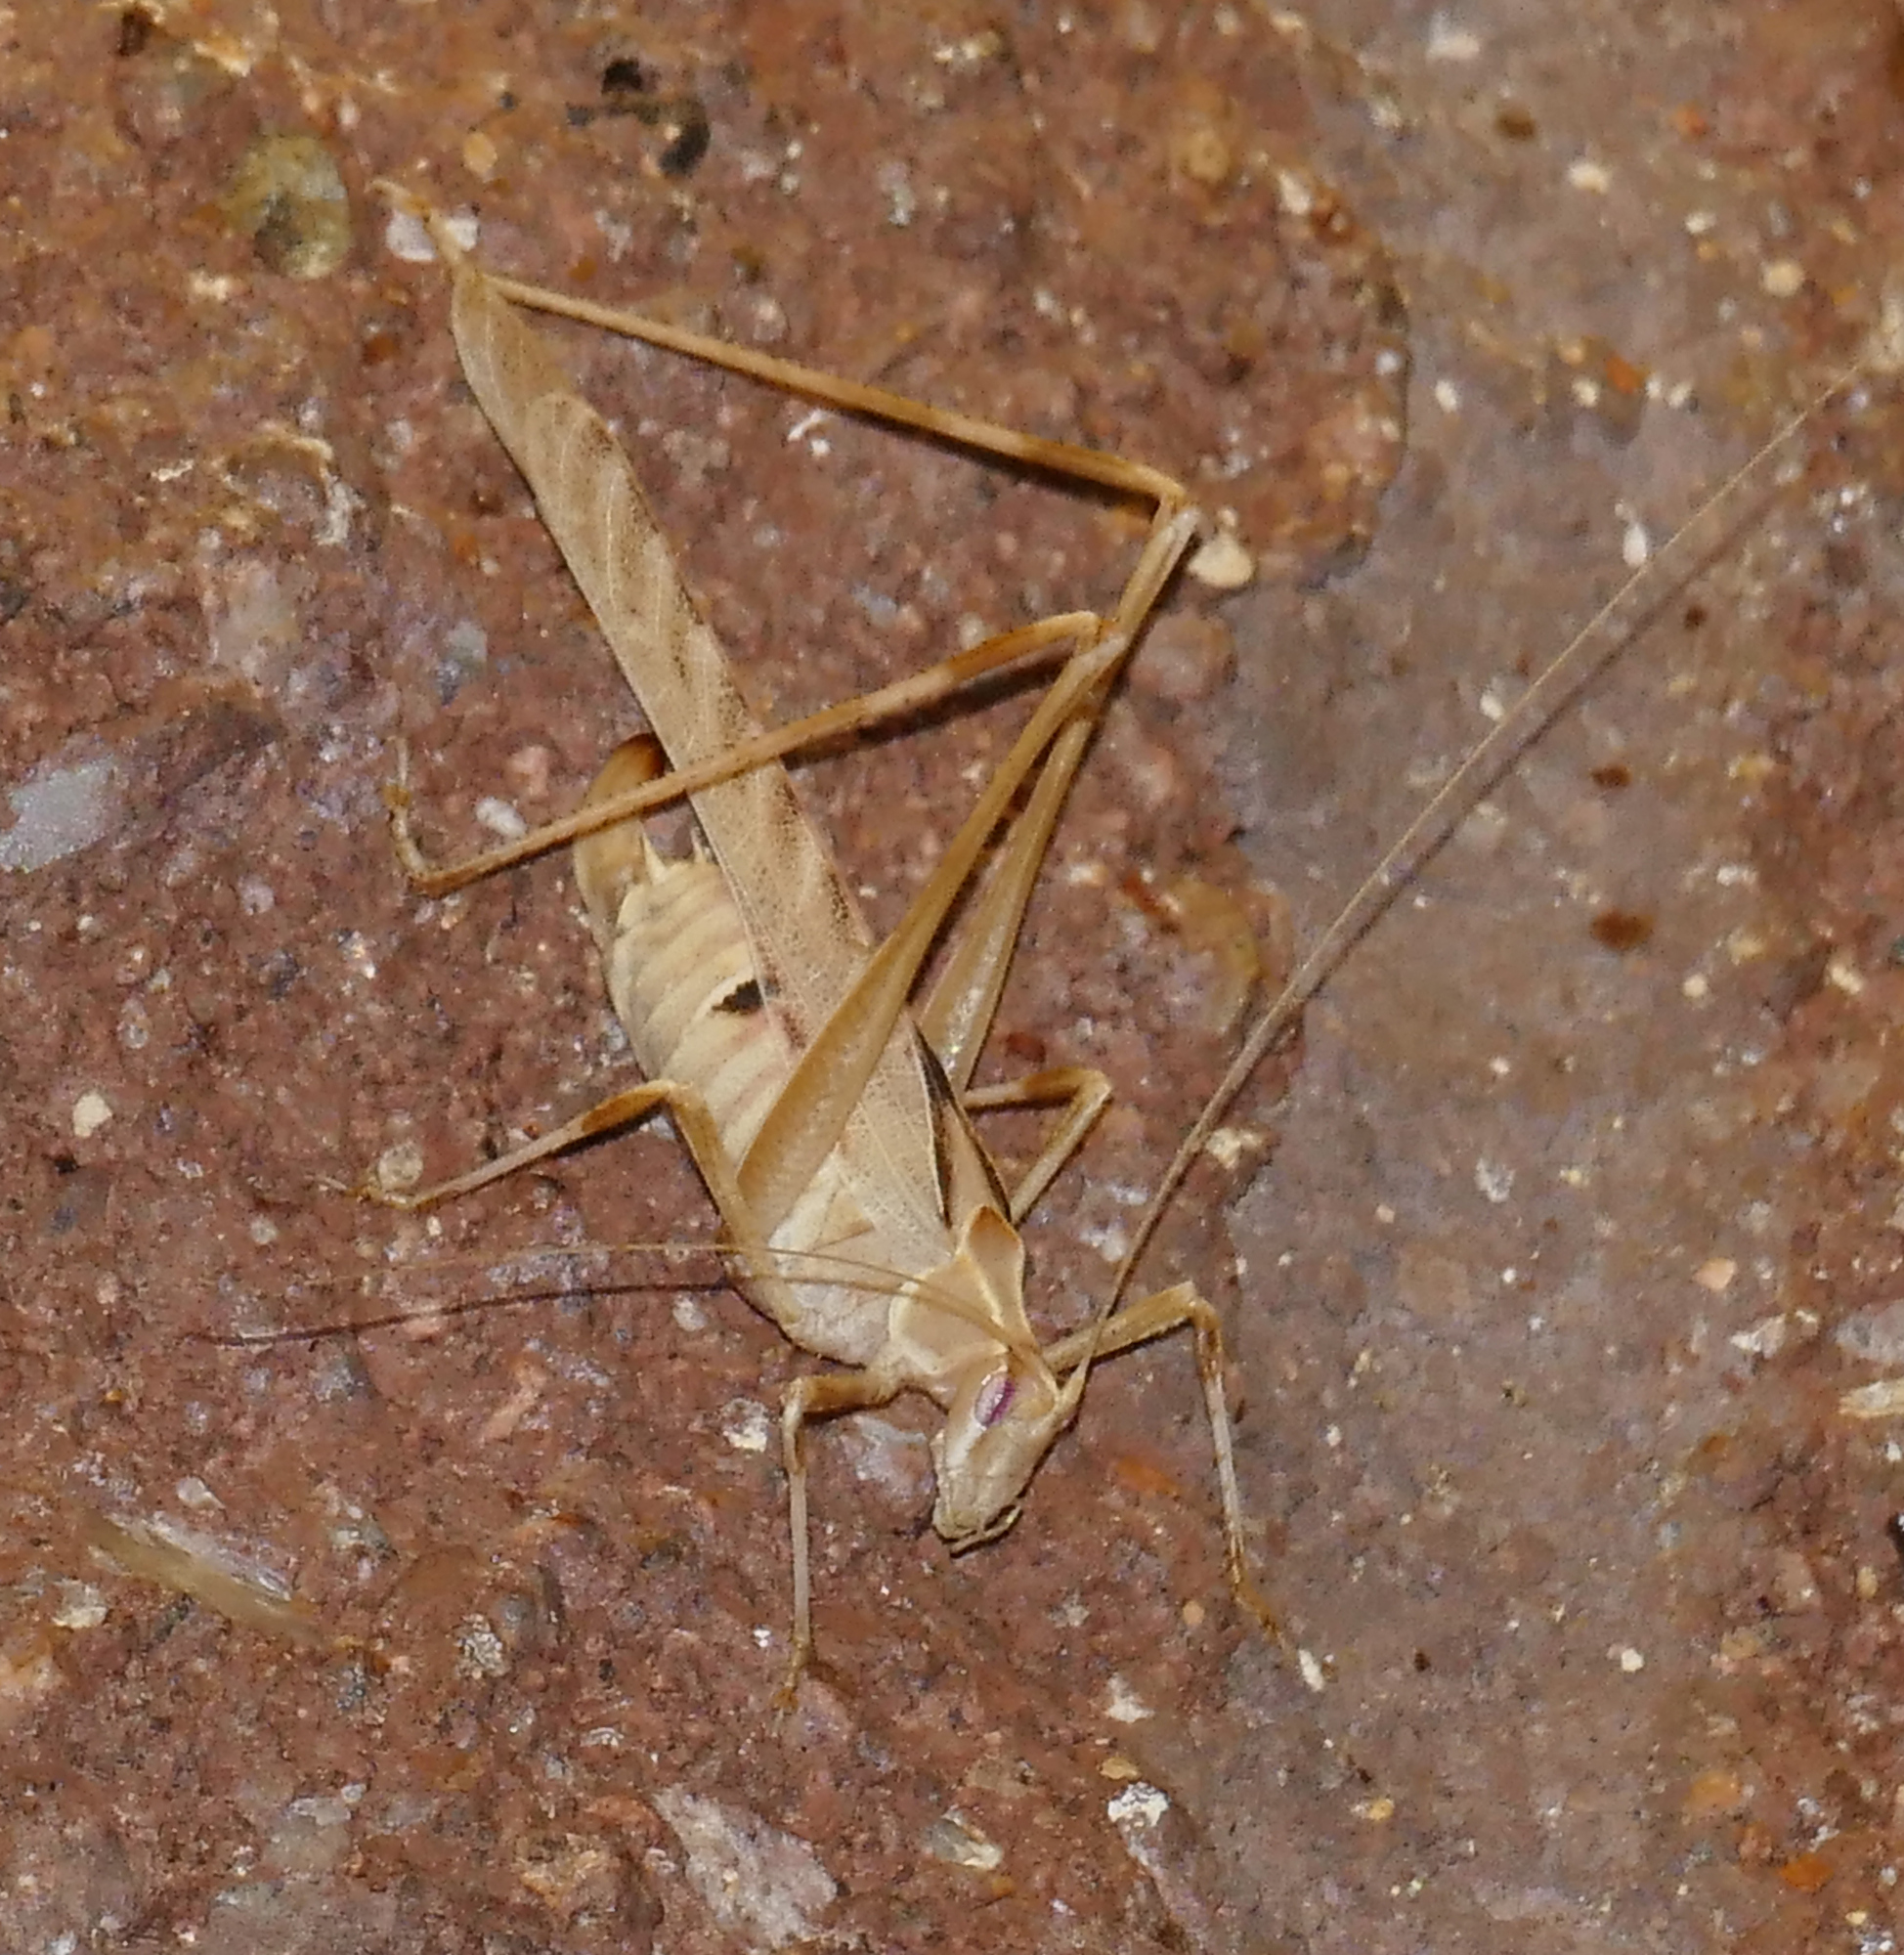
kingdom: Animalia
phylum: Arthropoda
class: Insecta
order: Orthoptera
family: Tettigoniidae
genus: Insara
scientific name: Insara elegans
